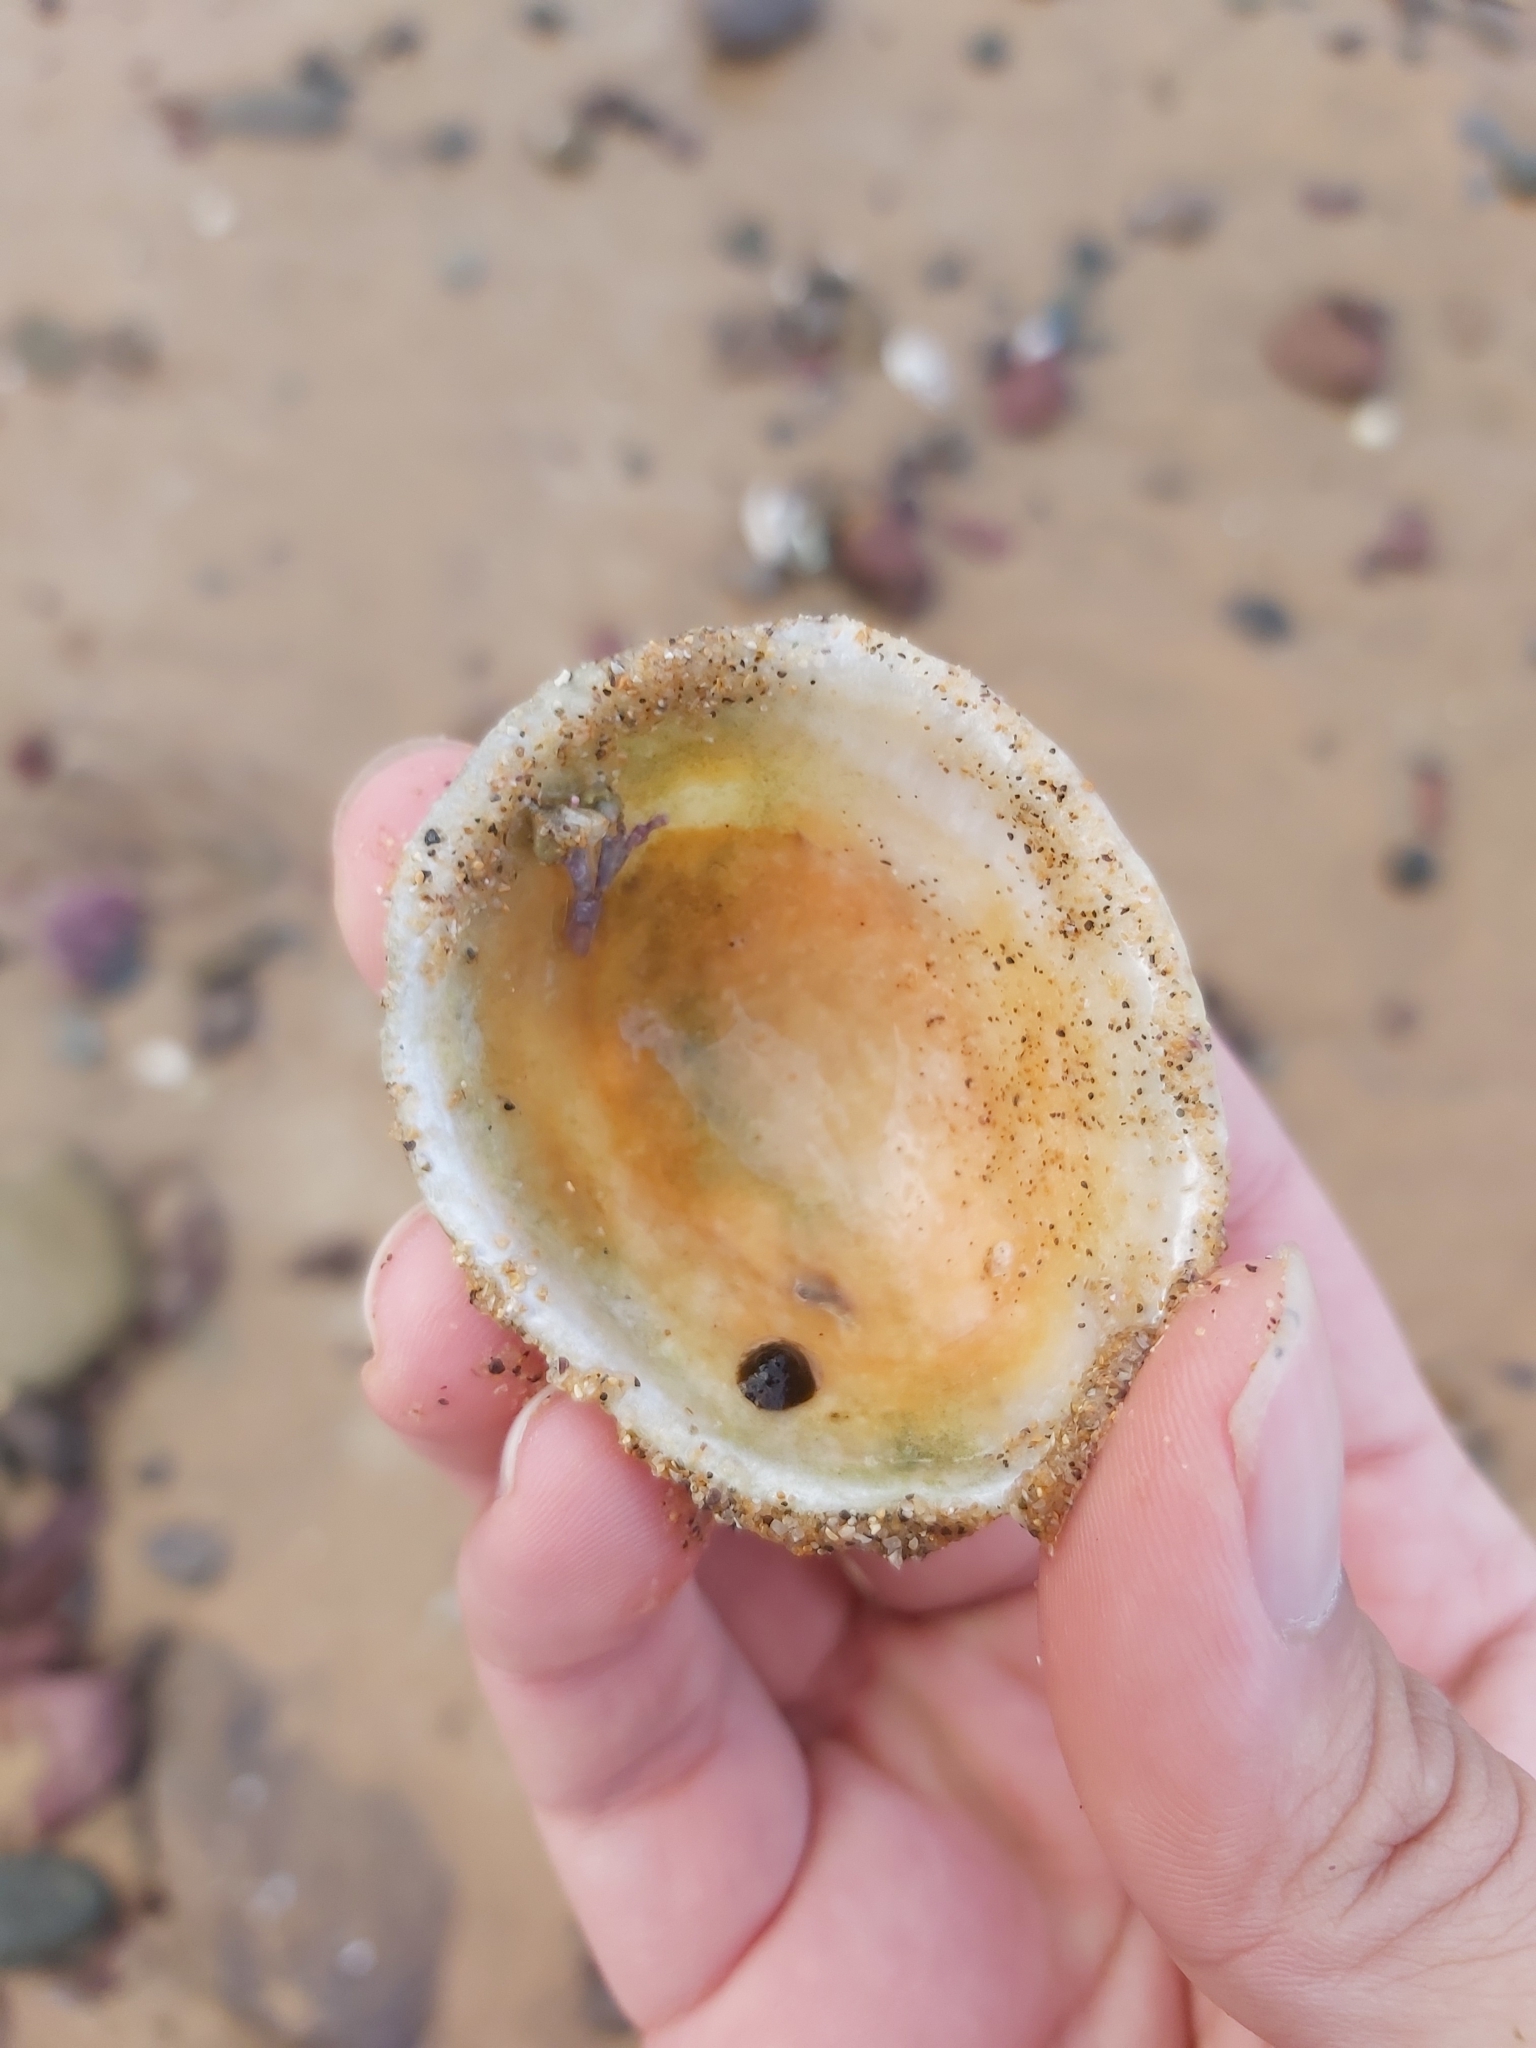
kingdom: Animalia
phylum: Mollusca
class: Gastropoda
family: Nacellidae
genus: Cellana
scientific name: Cellana tramoserica
